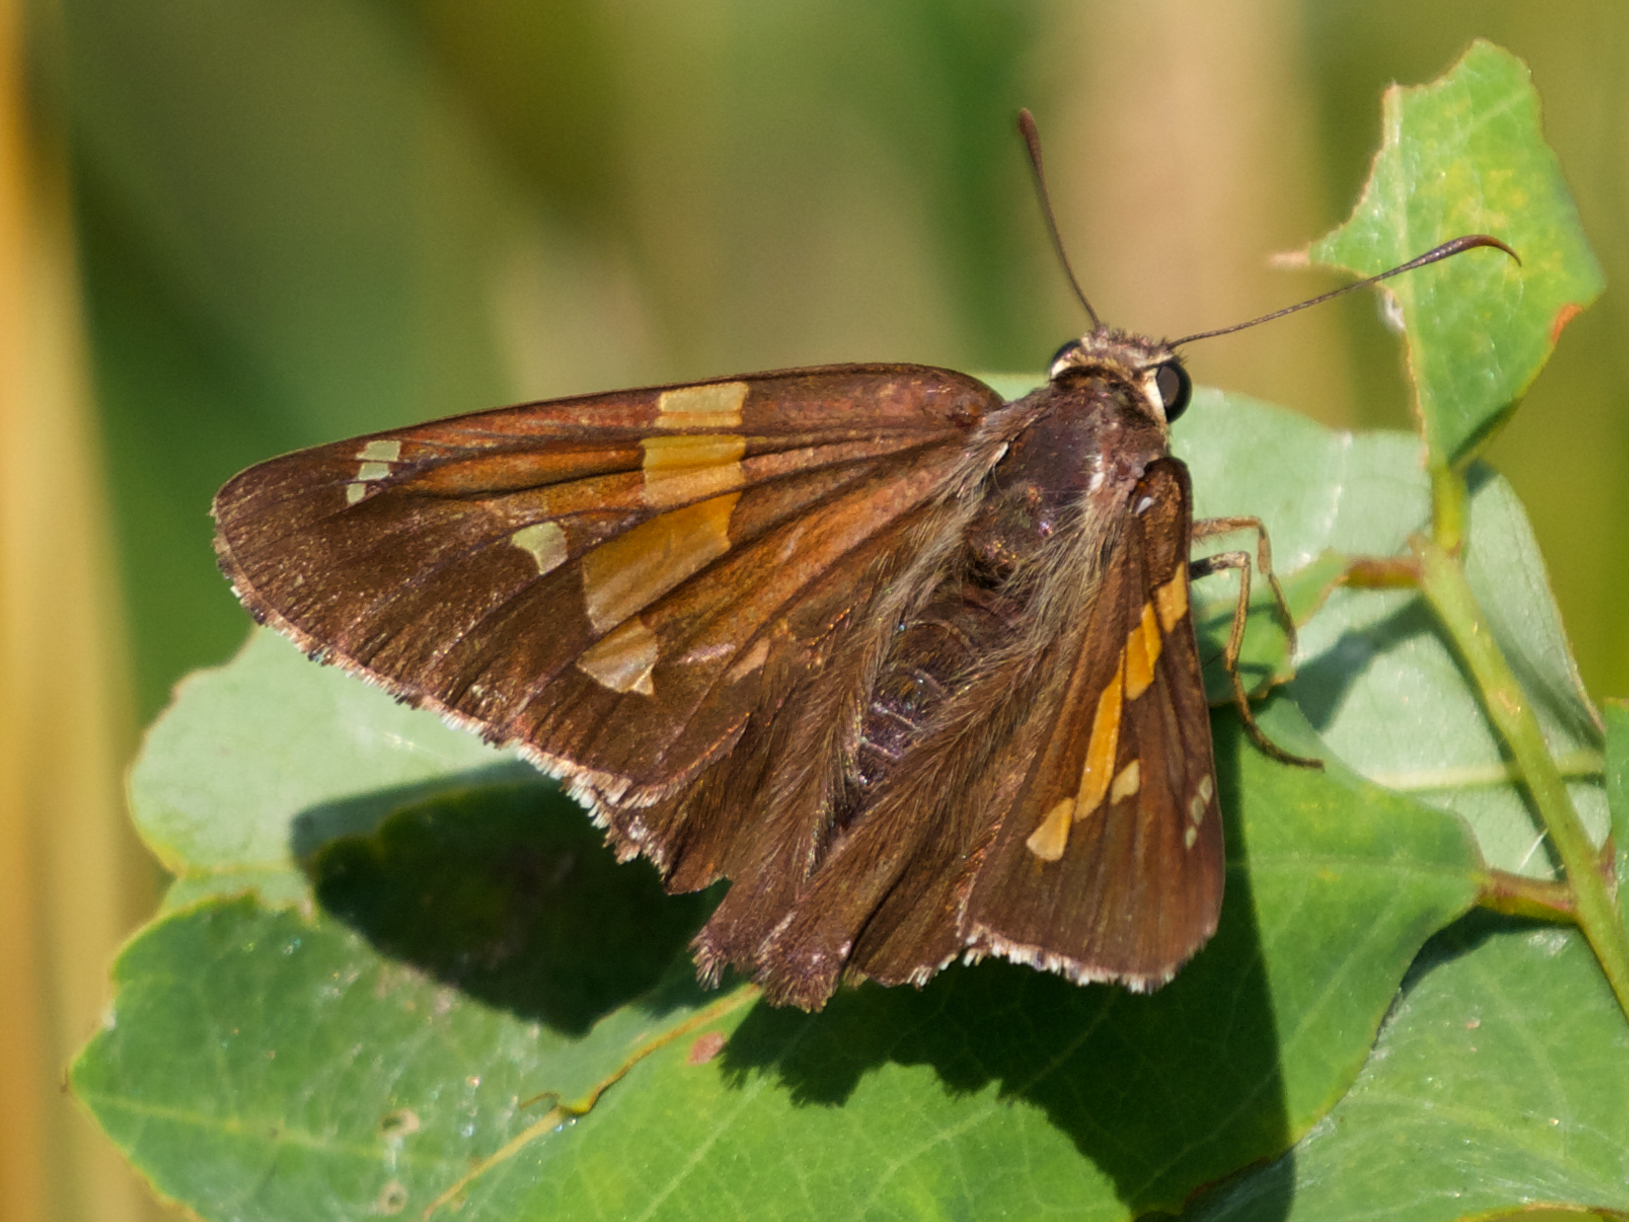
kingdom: Animalia
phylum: Arthropoda
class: Insecta
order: Lepidoptera
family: Hesperiidae
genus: Epargyreus
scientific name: Epargyreus clarus
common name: Silver-spotted skipper
